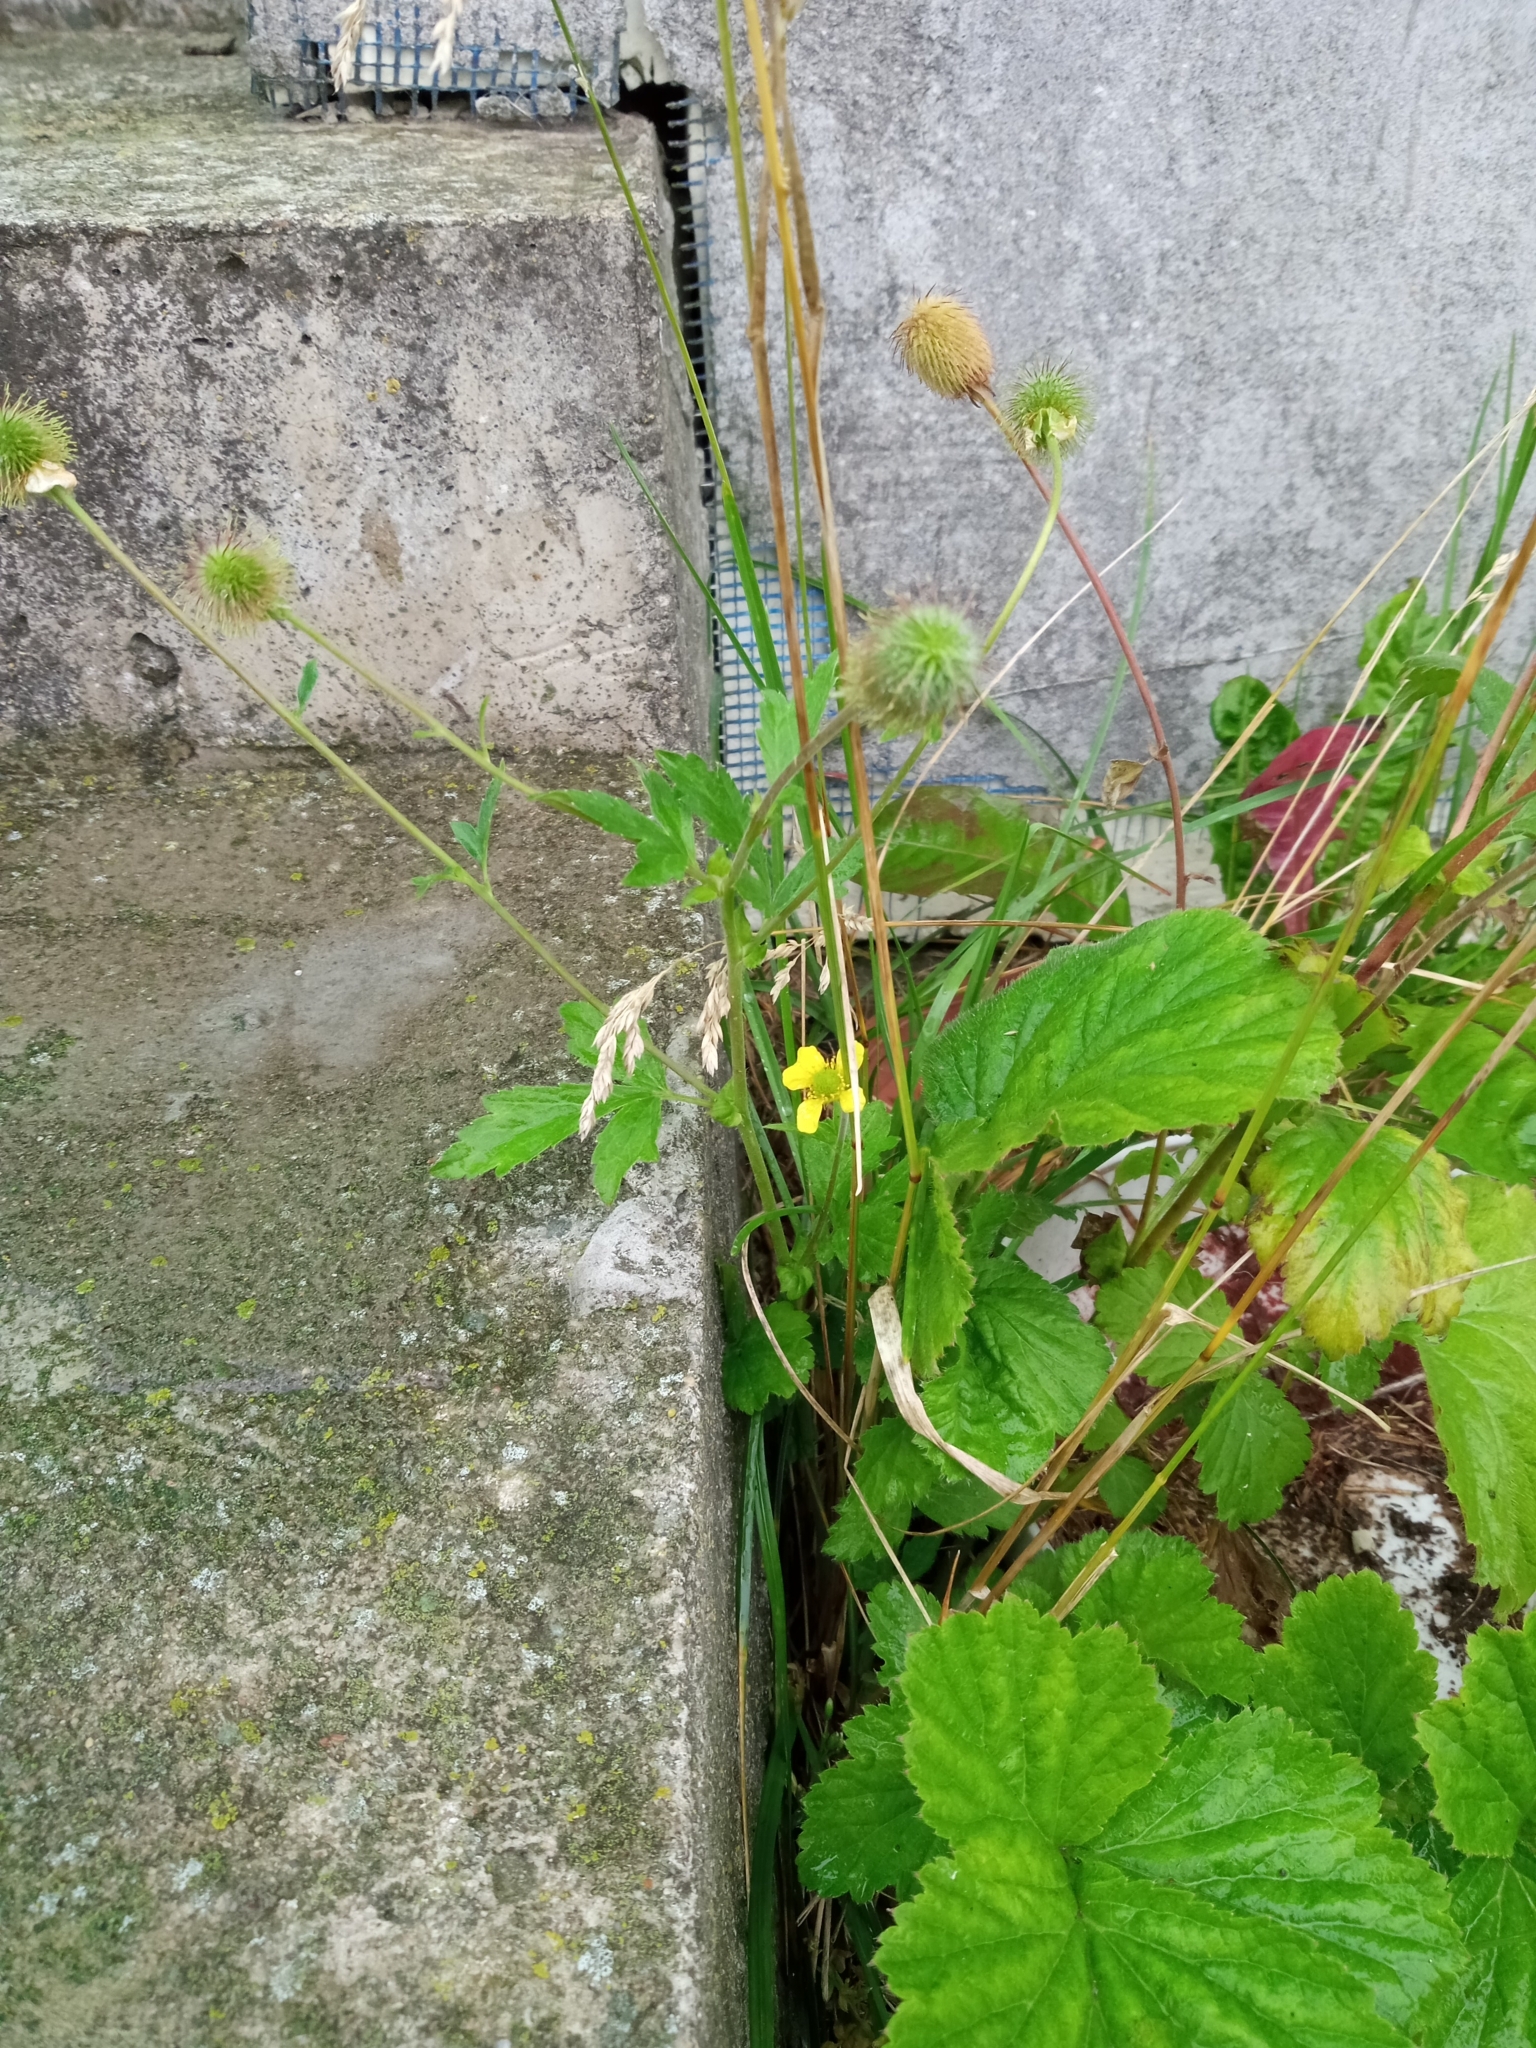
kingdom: Plantae
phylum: Tracheophyta
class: Magnoliopsida
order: Rosales
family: Rosaceae
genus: Geum
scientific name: Geum aleppicum
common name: Yellow avens
